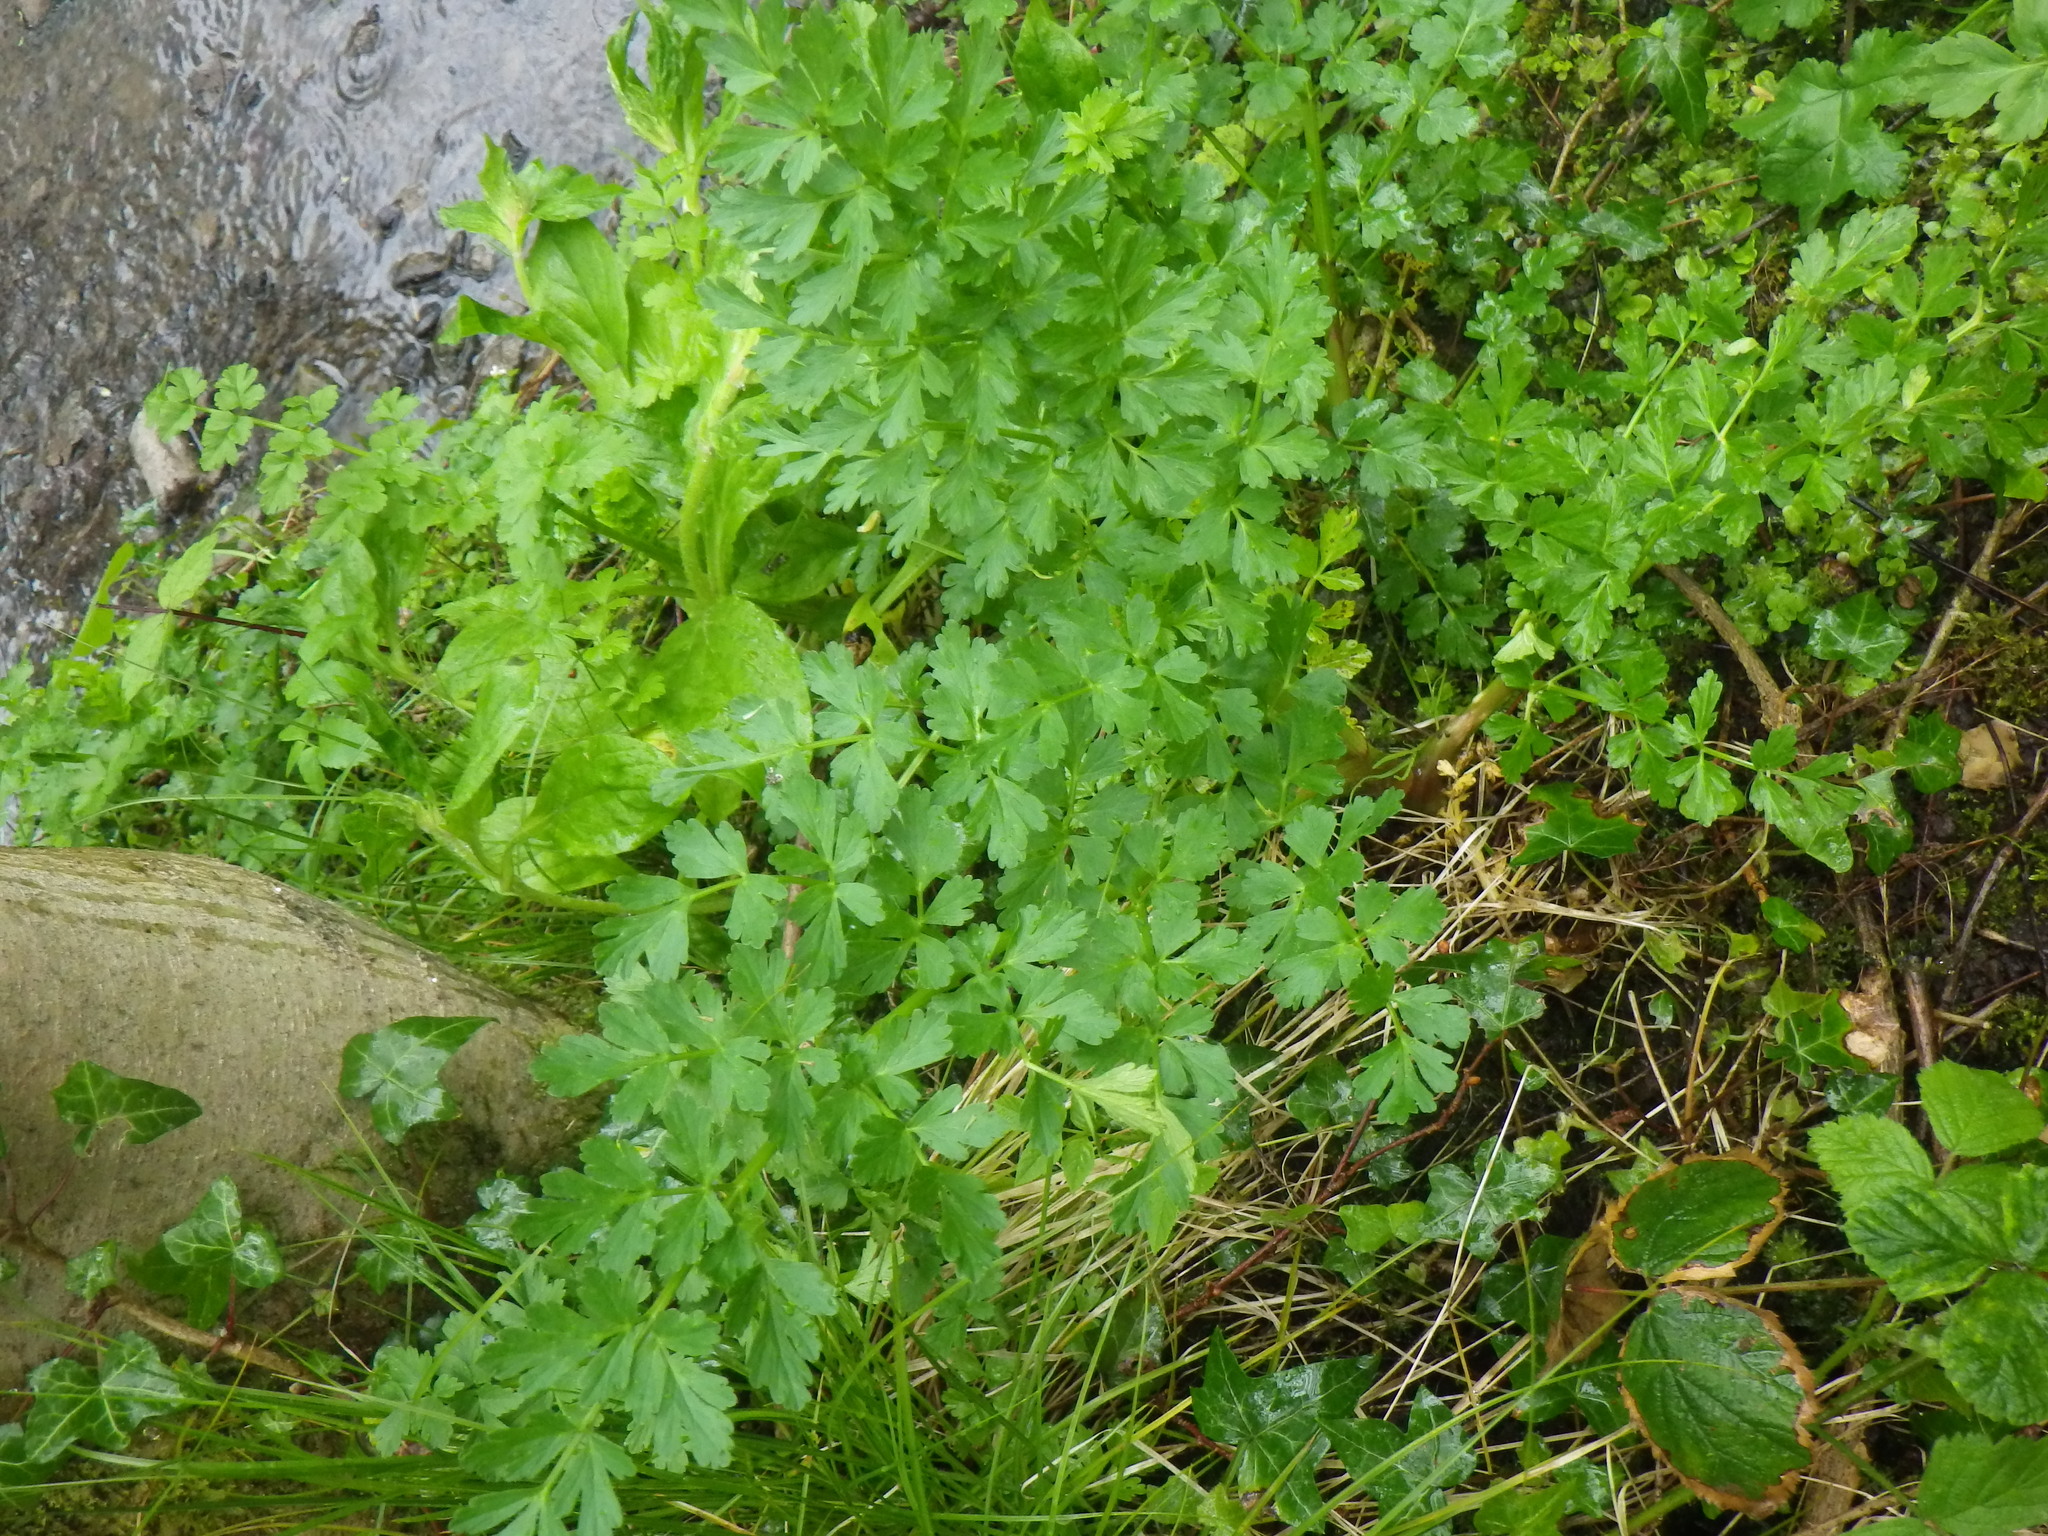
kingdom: Plantae
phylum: Tracheophyta
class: Magnoliopsida
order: Apiales
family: Apiaceae
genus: Oenanthe
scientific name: Oenanthe crocata
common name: Hemlock water-dropwort
